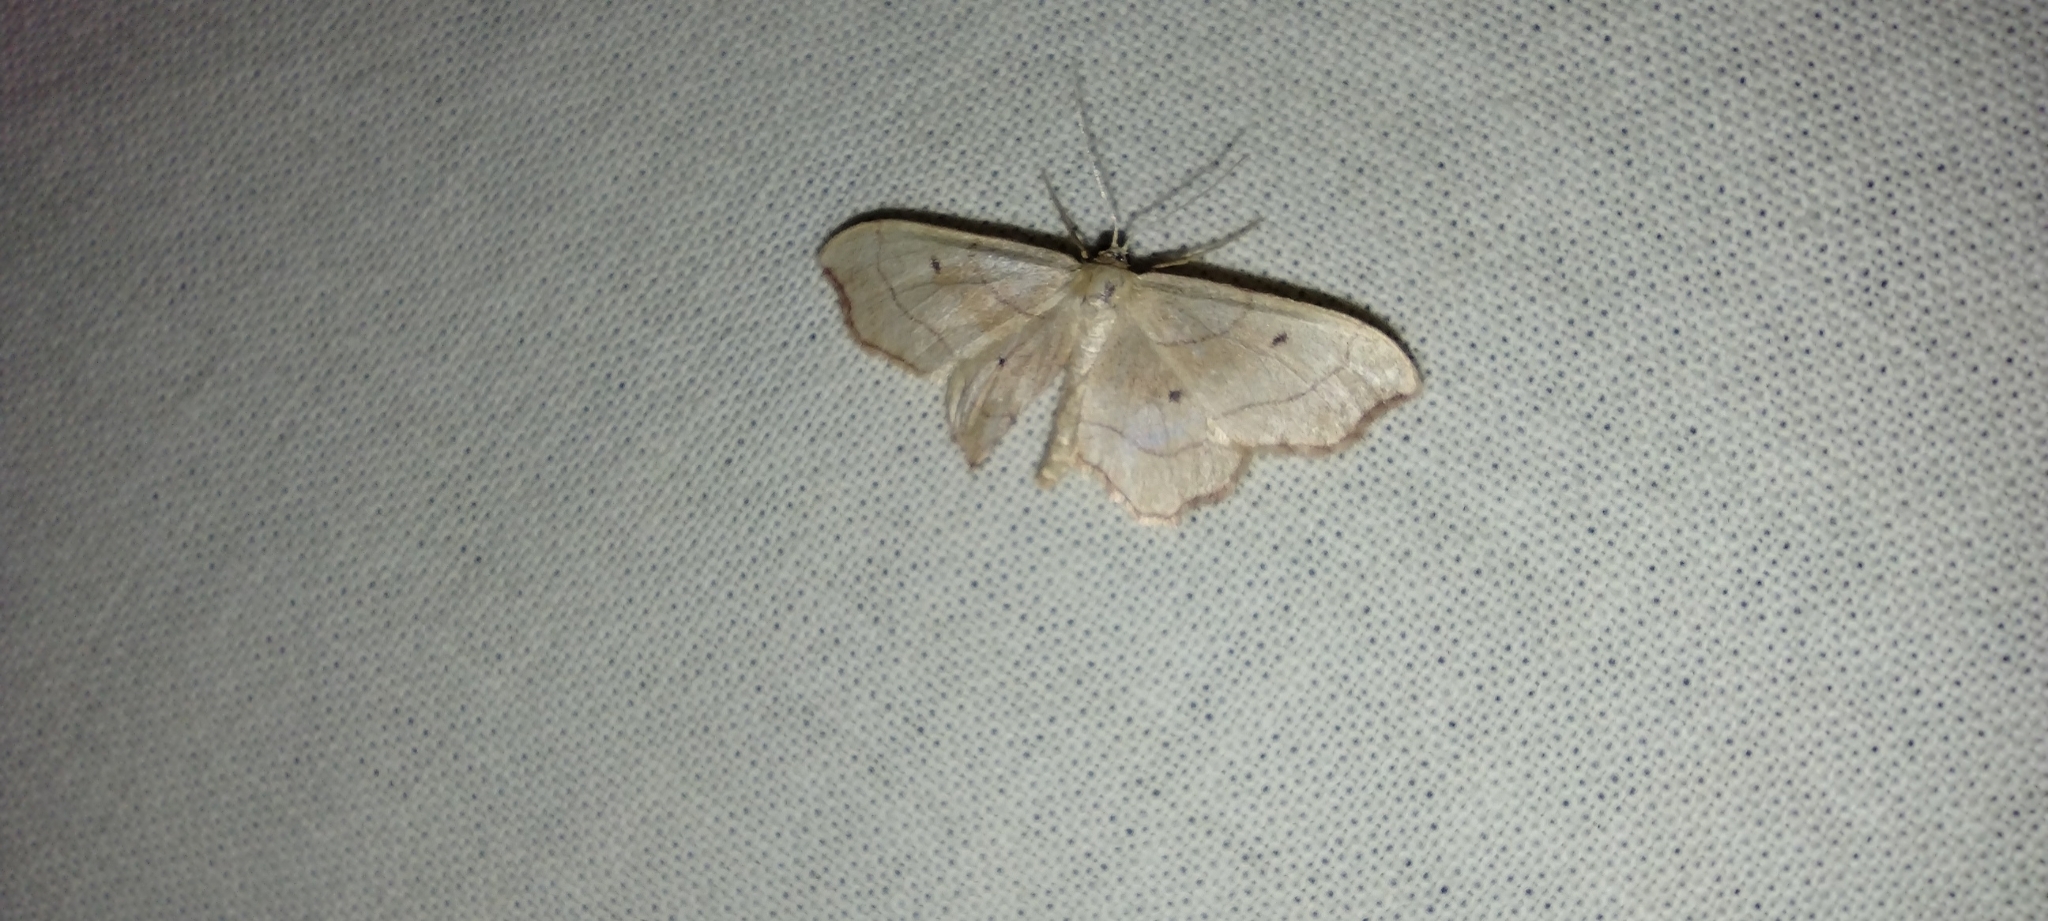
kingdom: Animalia
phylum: Arthropoda
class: Insecta
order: Lepidoptera
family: Geometridae
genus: Idaea
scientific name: Idaea emarginata
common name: Small scallop
